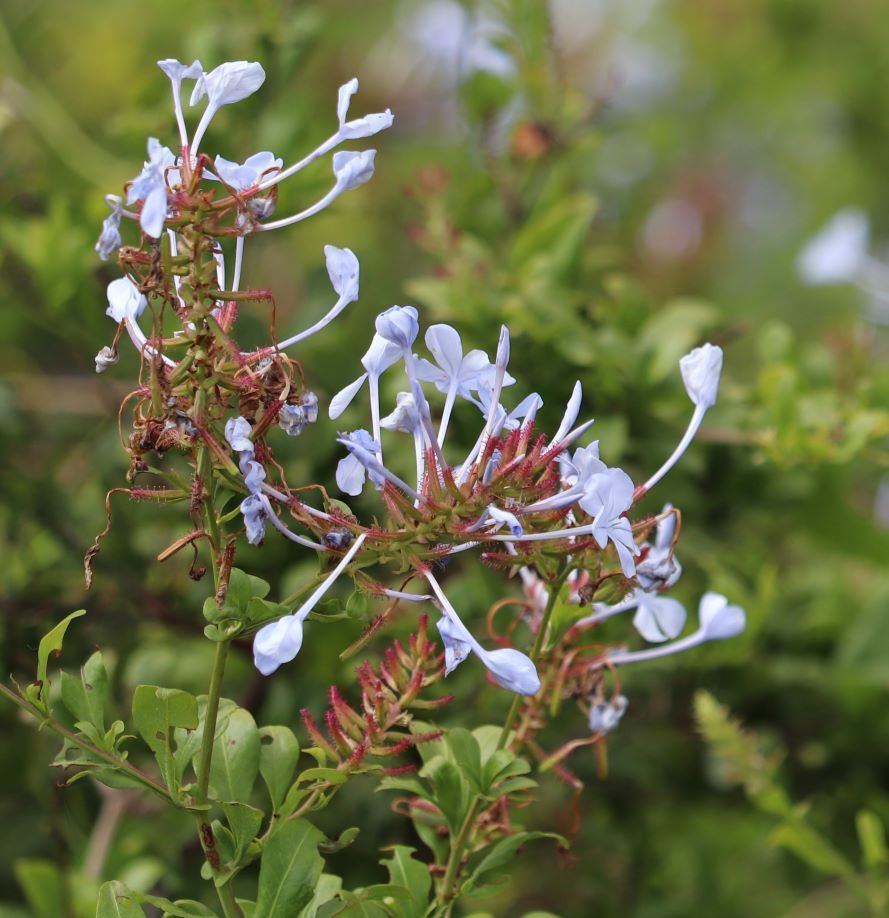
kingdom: Plantae
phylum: Tracheophyta
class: Magnoliopsida
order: Caryophyllales
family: Plumbaginaceae
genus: Plumbago
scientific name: Plumbago auriculata
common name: Cape leadwort
